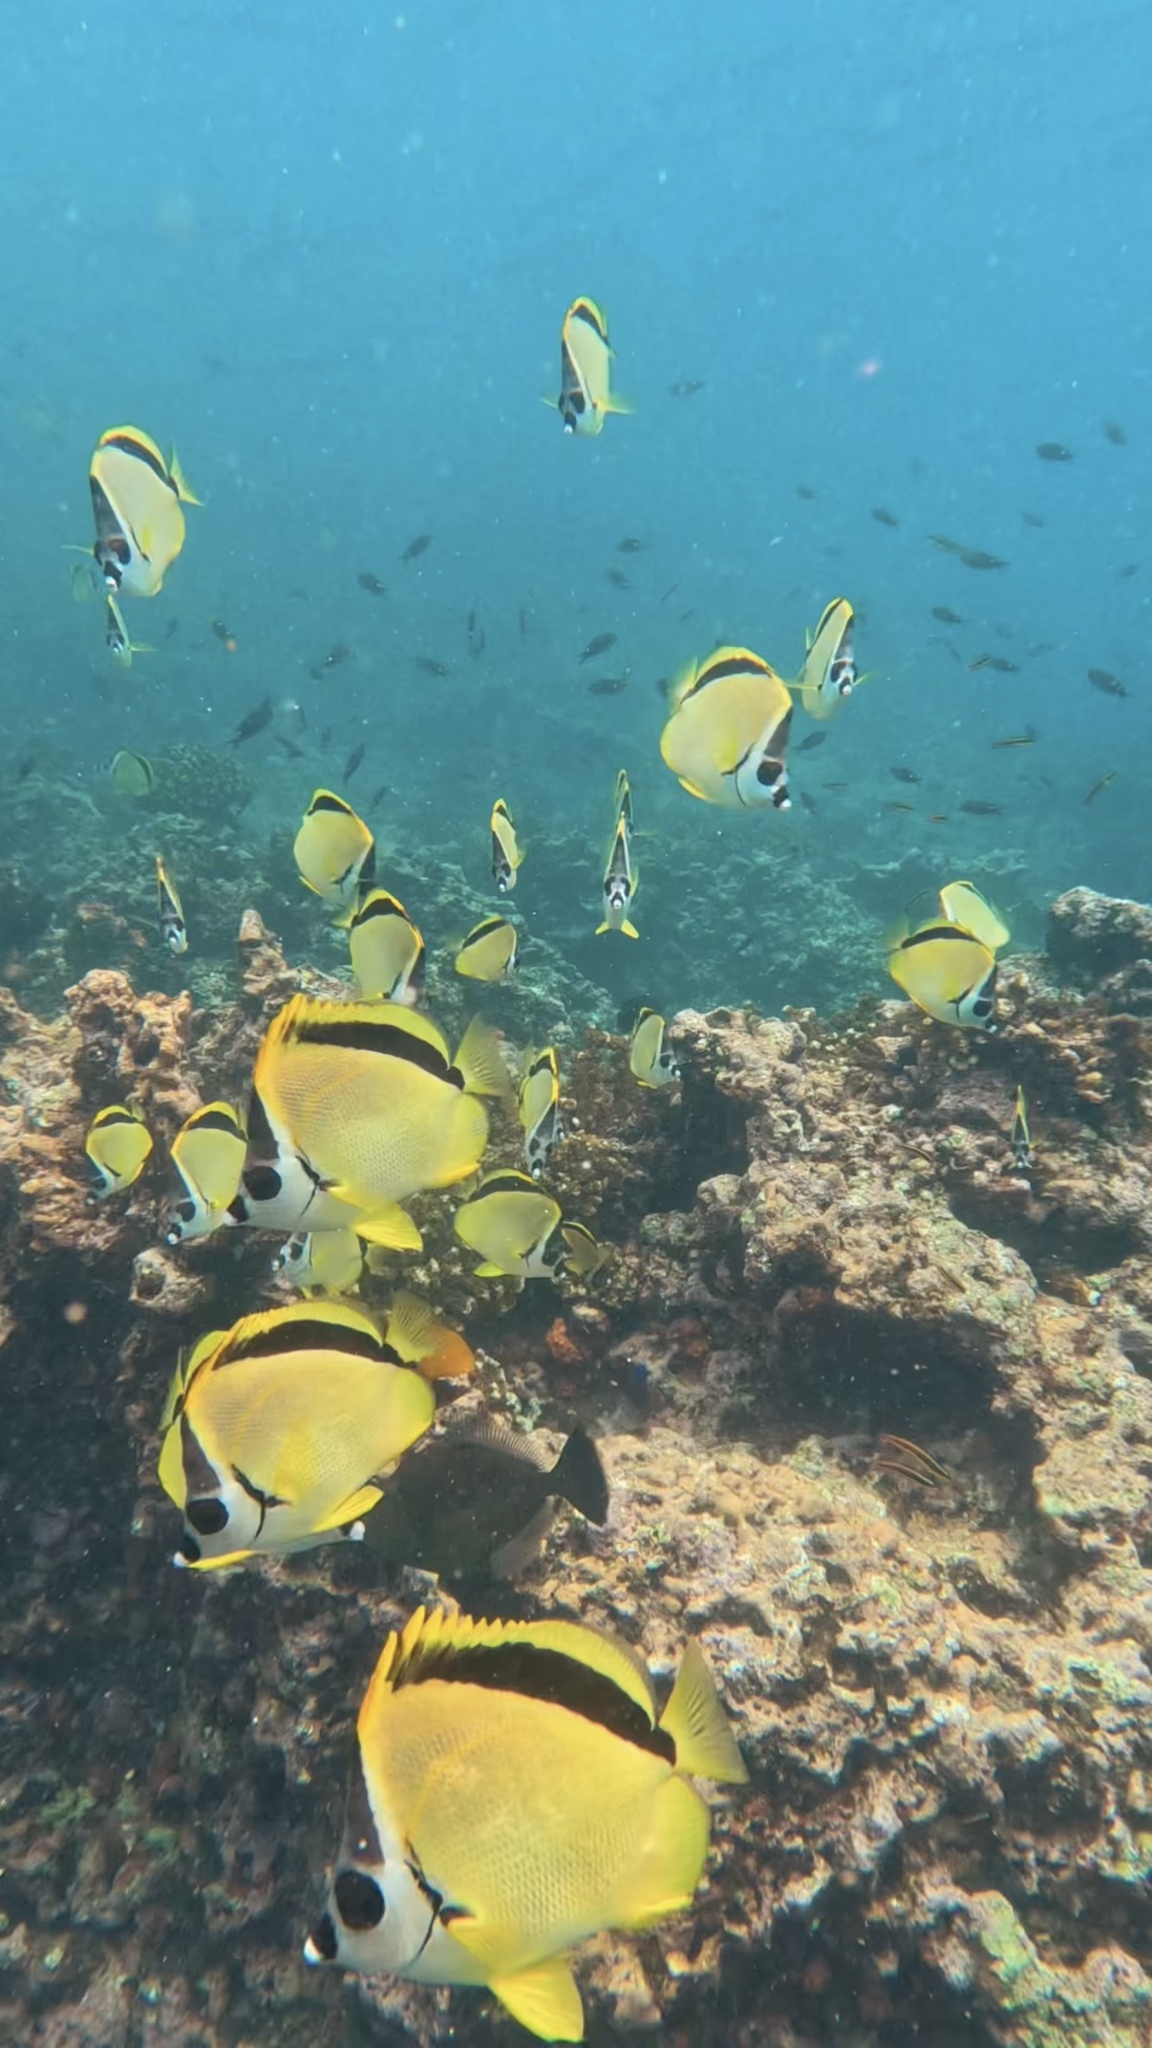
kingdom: Animalia
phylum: Chordata
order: Perciformes
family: Chaetodontidae
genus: Johnrandallia
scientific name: Johnrandallia nigrirostris
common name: Barberfish
